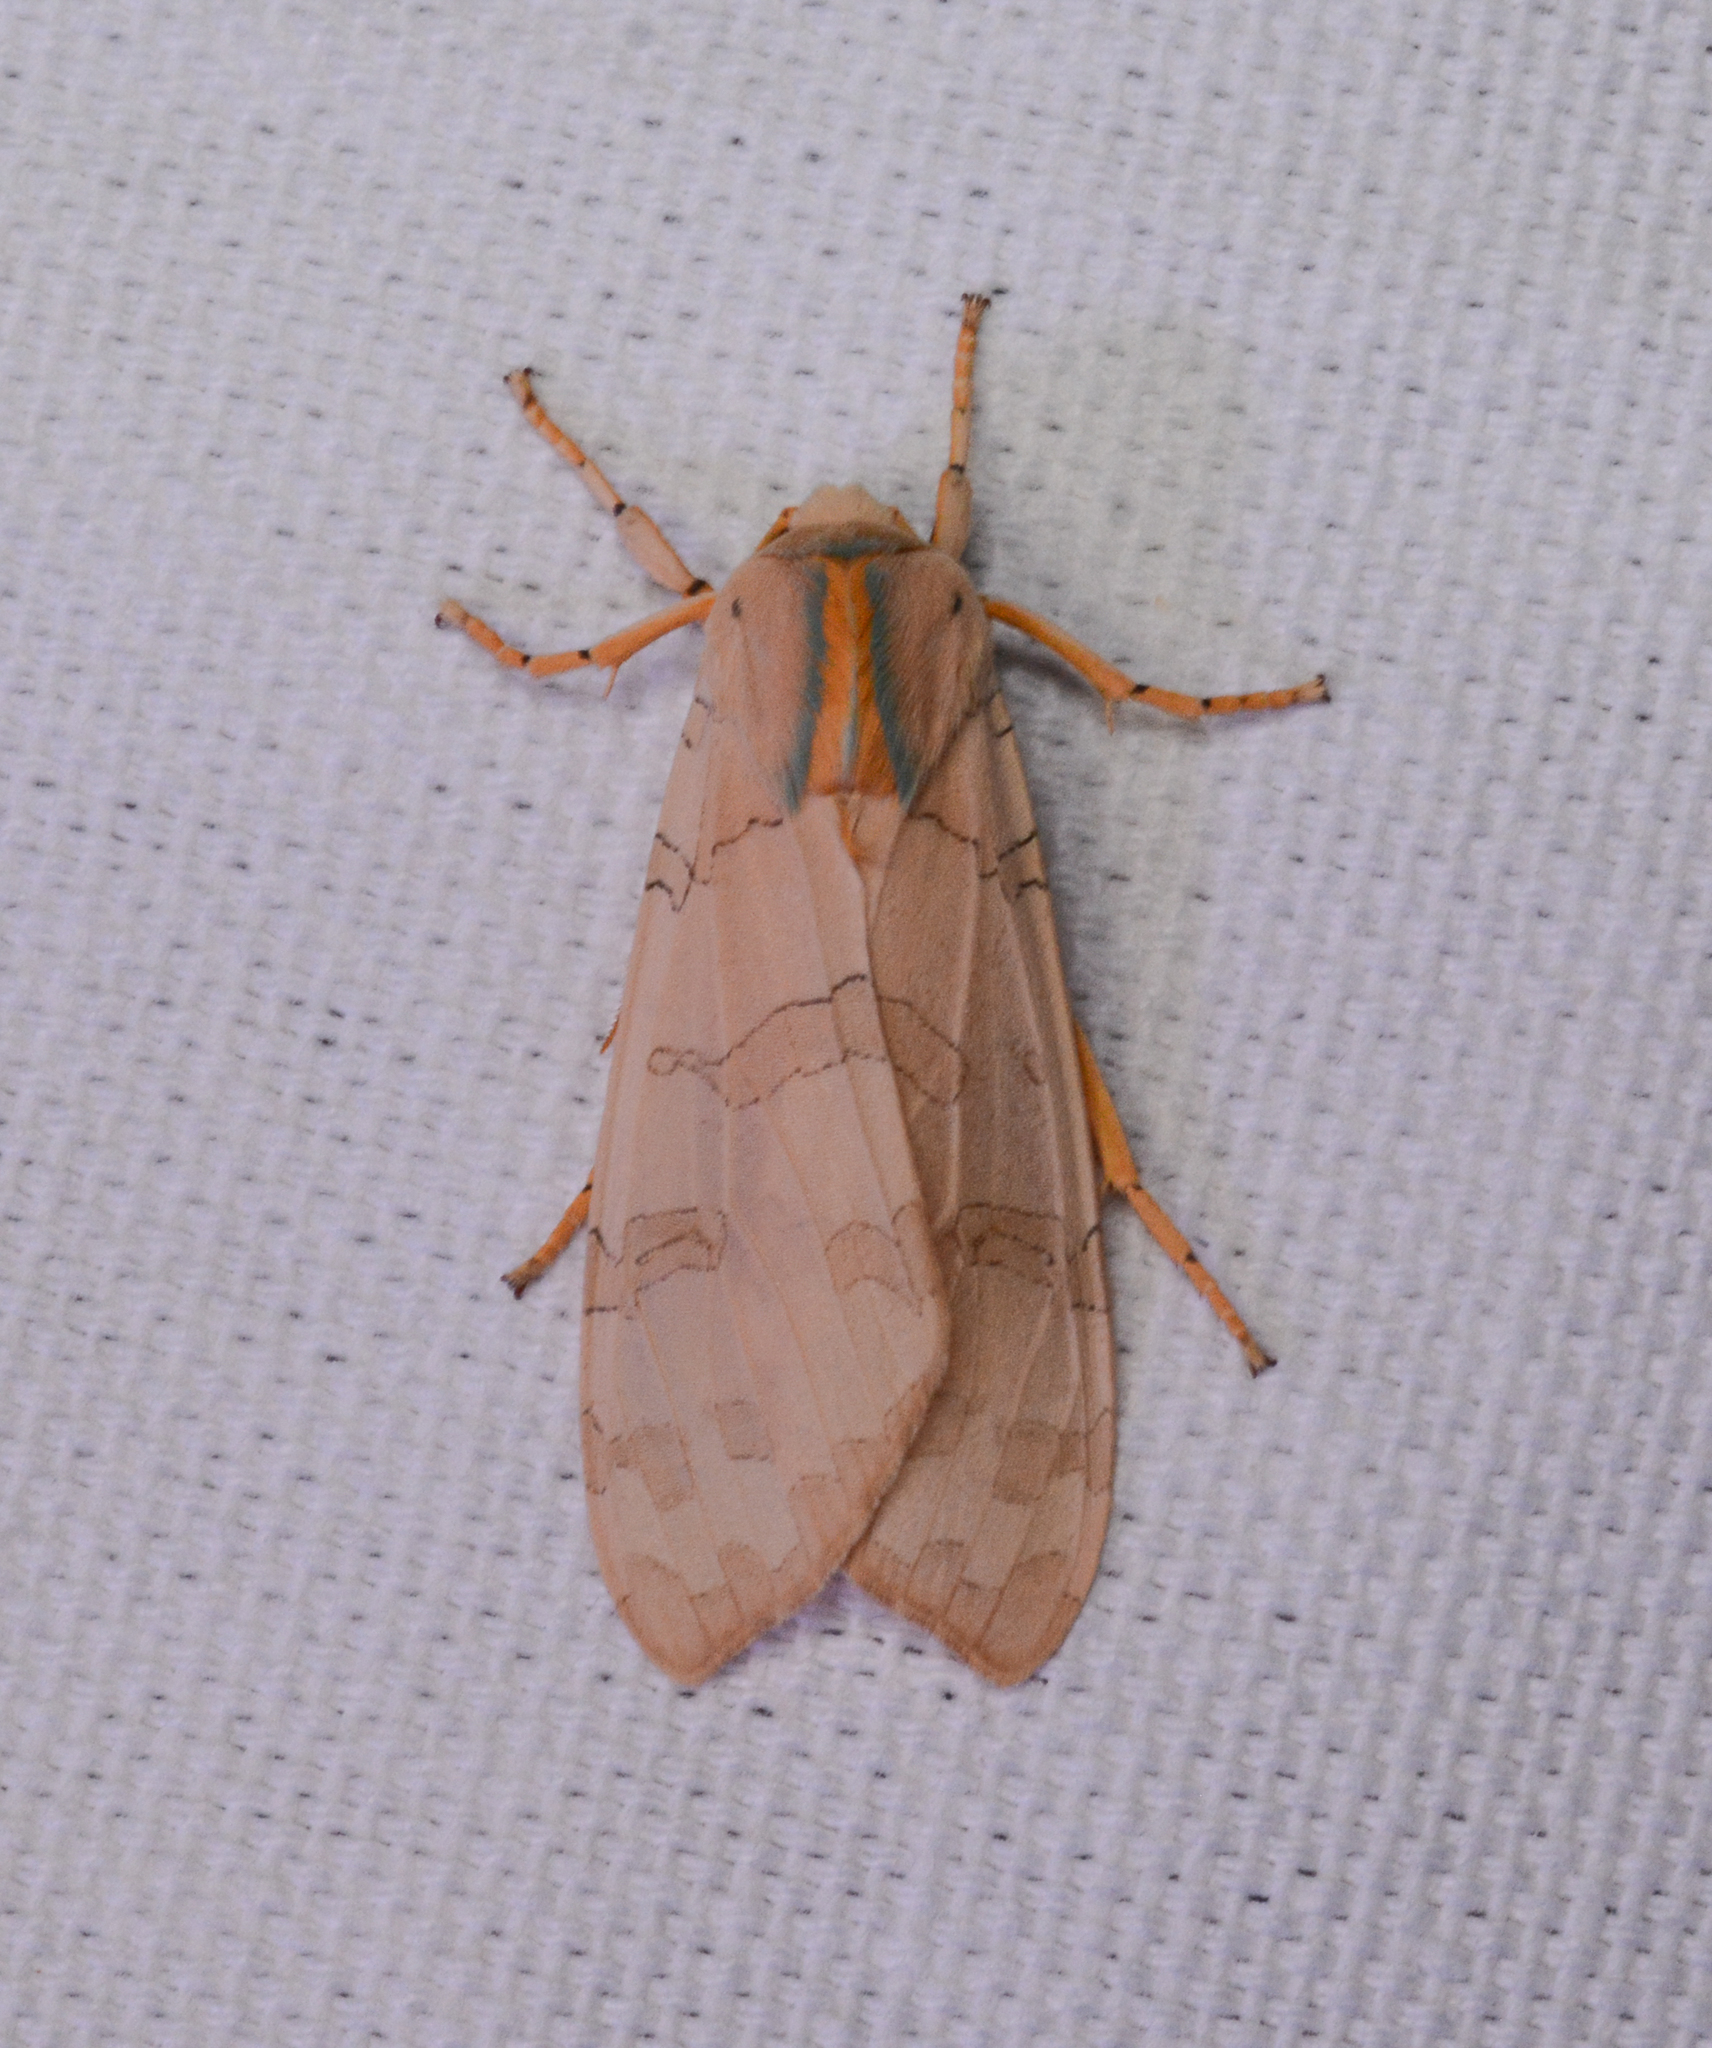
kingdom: Animalia
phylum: Arthropoda
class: Insecta
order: Lepidoptera
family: Erebidae
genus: Halysidota
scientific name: Halysidota
